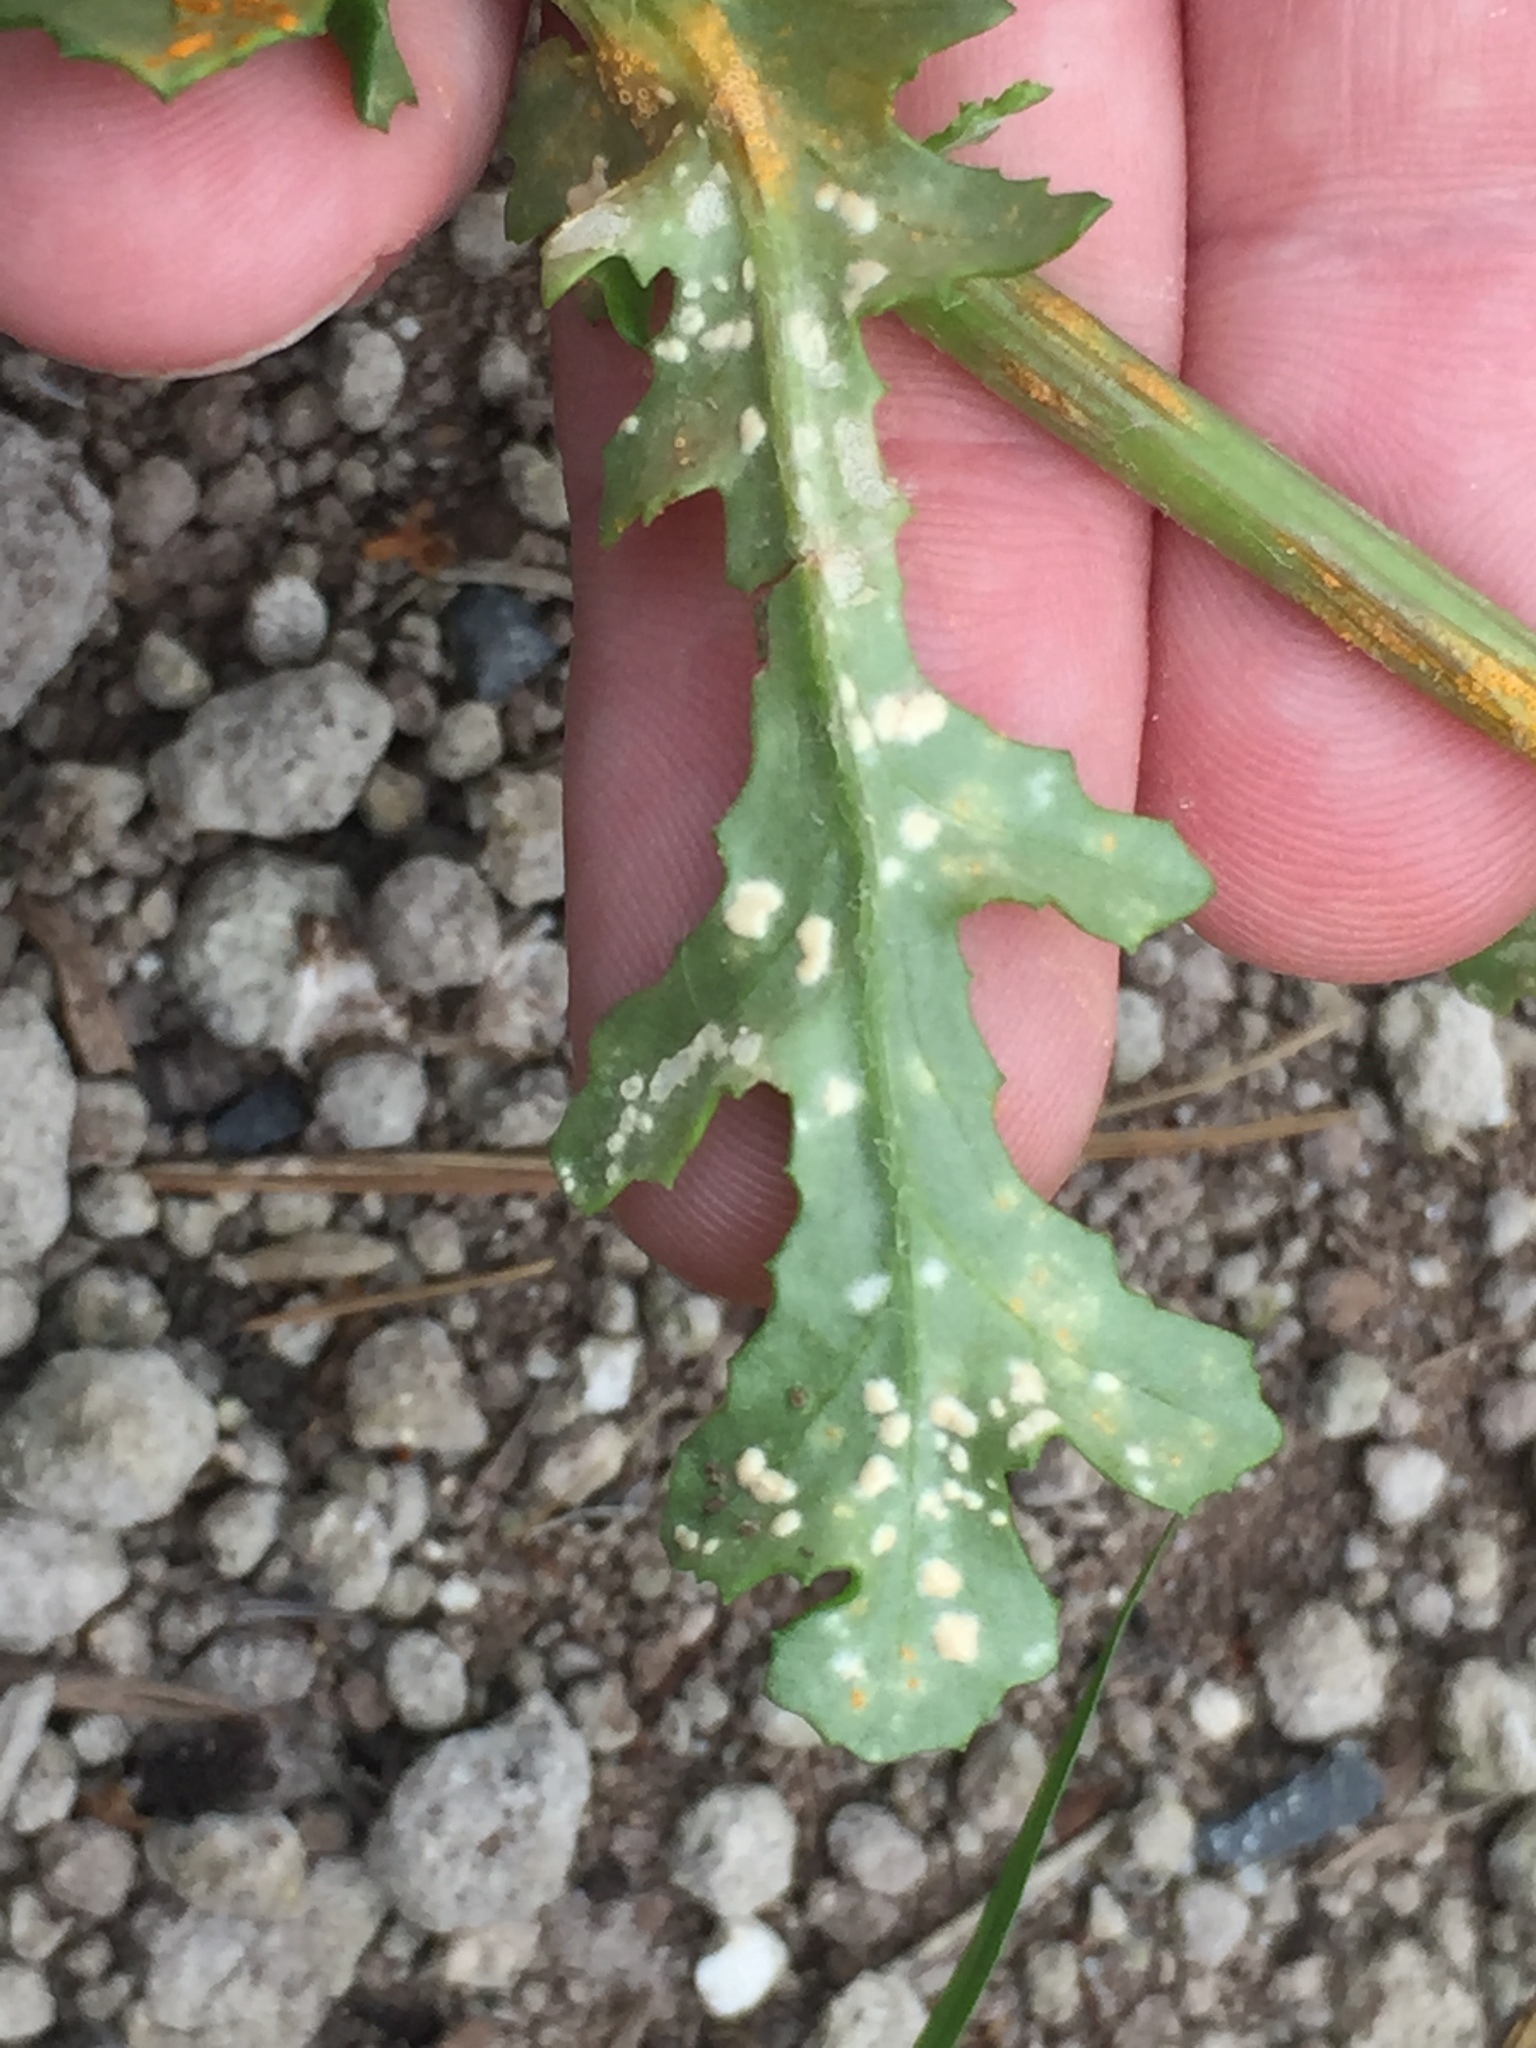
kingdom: Chromista
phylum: Oomycota
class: Peronosporea
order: Albuginales
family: Albuginaceae
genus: Pustula
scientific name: Pustula
